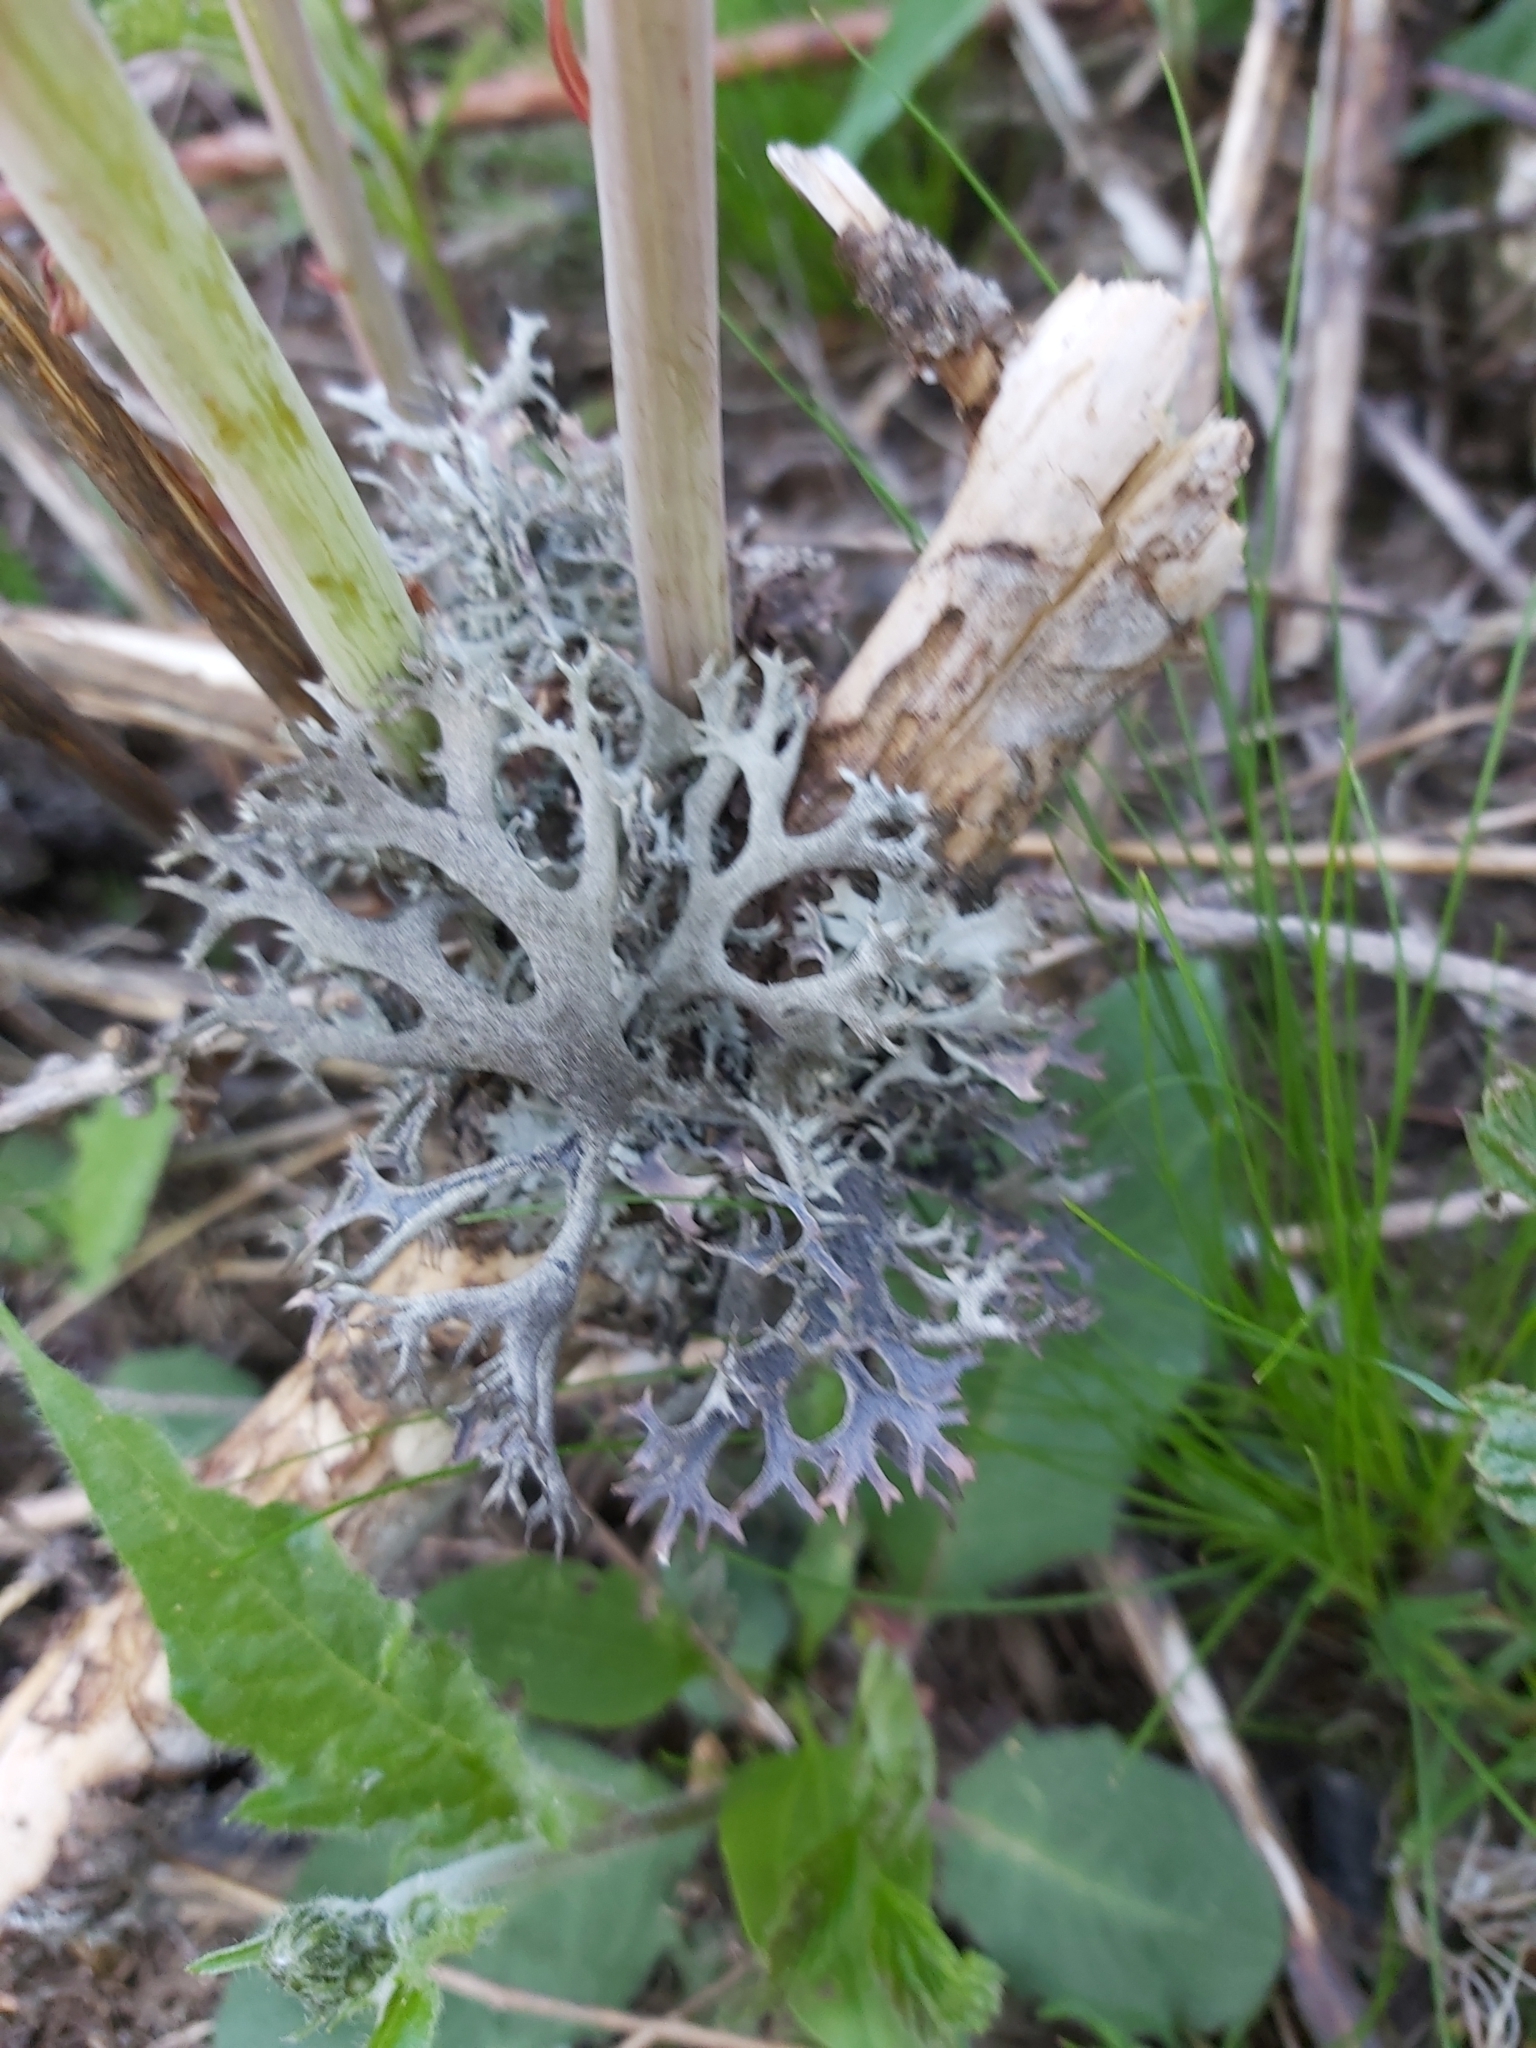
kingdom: Fungi
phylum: Ascomycota
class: Lecanoromycetes
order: Lecanorales
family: Parmeliaceae
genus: Pseudevernia
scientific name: Pseudevernia furfuracea
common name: Tree moss
